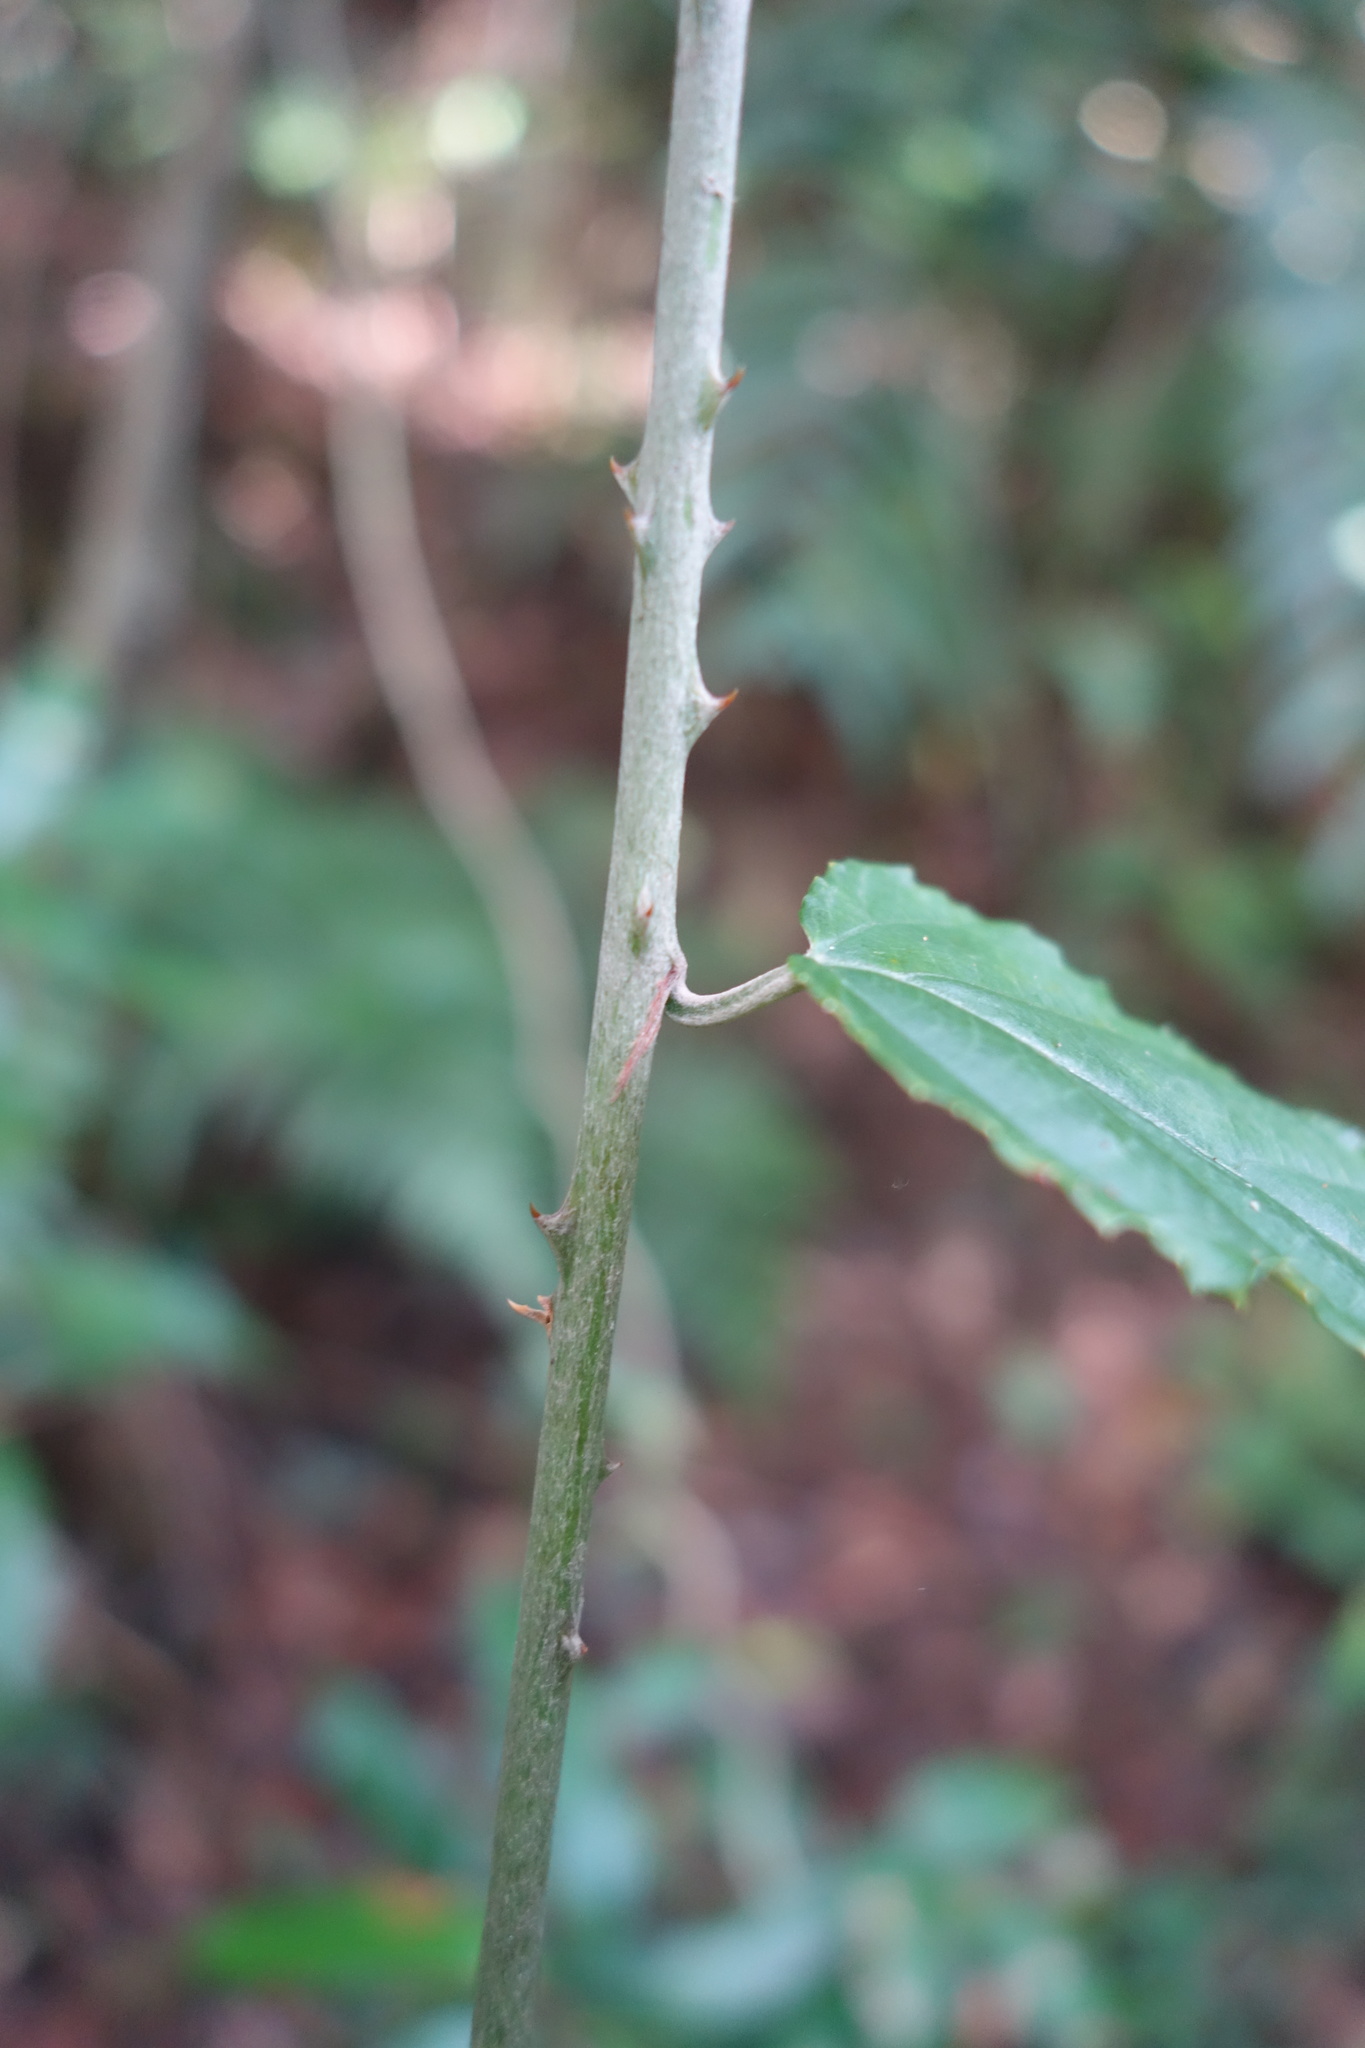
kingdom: Plantae
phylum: Tracheophyta
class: Magnoliopsida
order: Rosales
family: Rosaceae
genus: Rubus
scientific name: Rubus swinhoei
